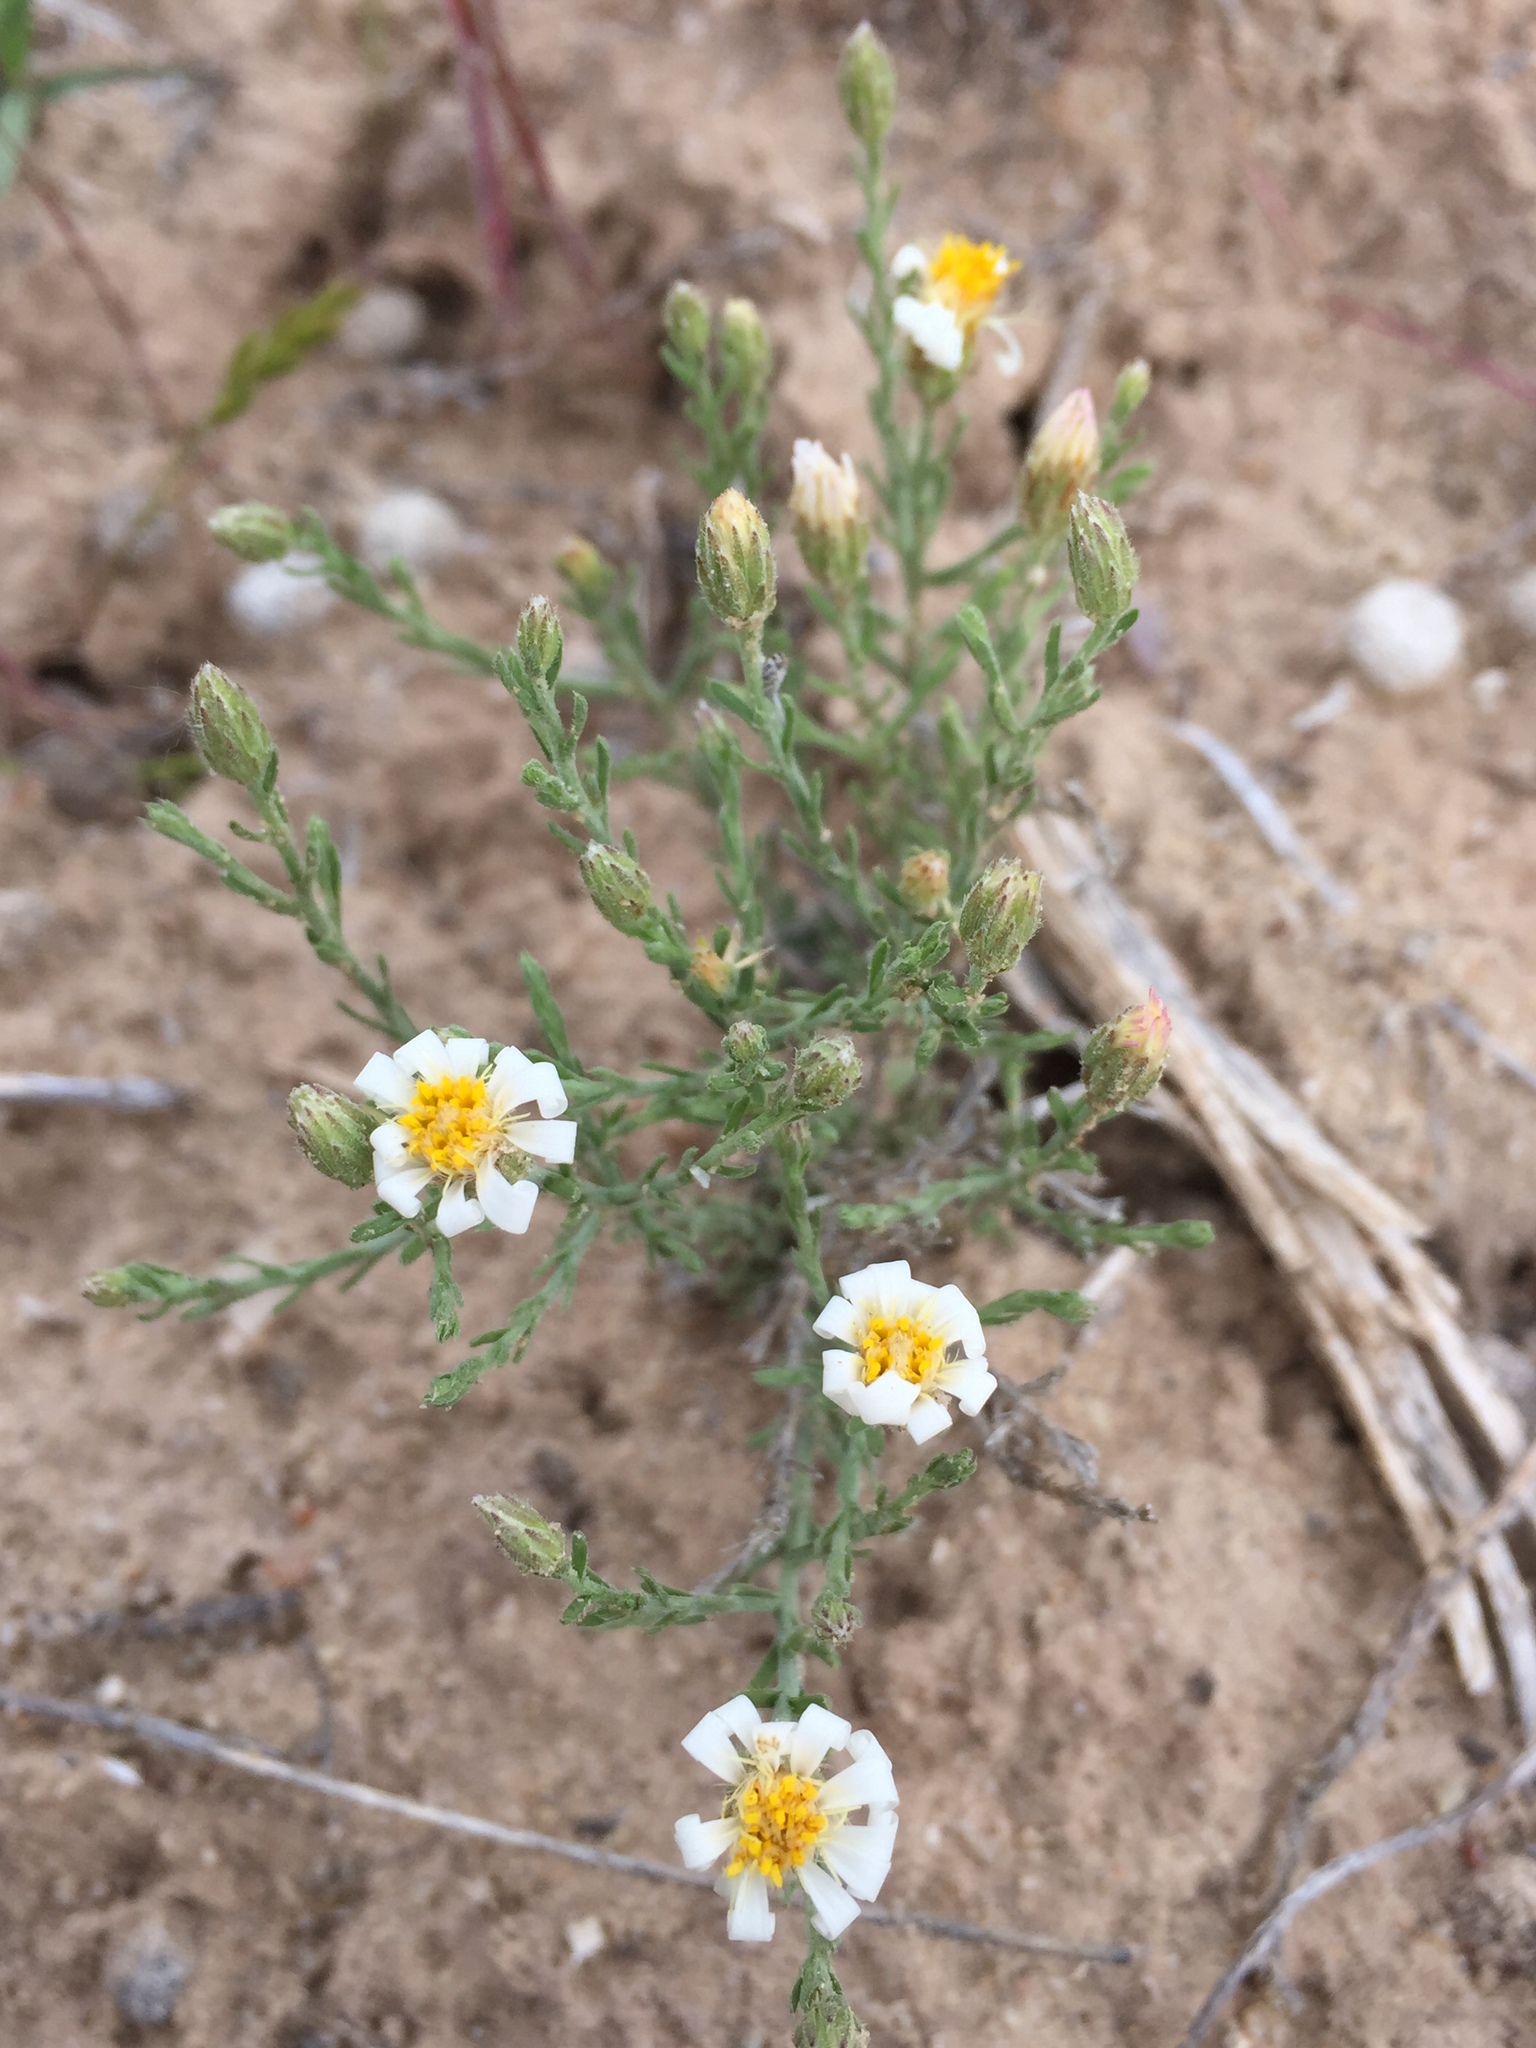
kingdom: Plantae
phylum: Tracheophyta
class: Magnoliopsida
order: Asterales
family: Asteraceae
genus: Chaetopappa
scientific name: Chaetopappa ericoides
